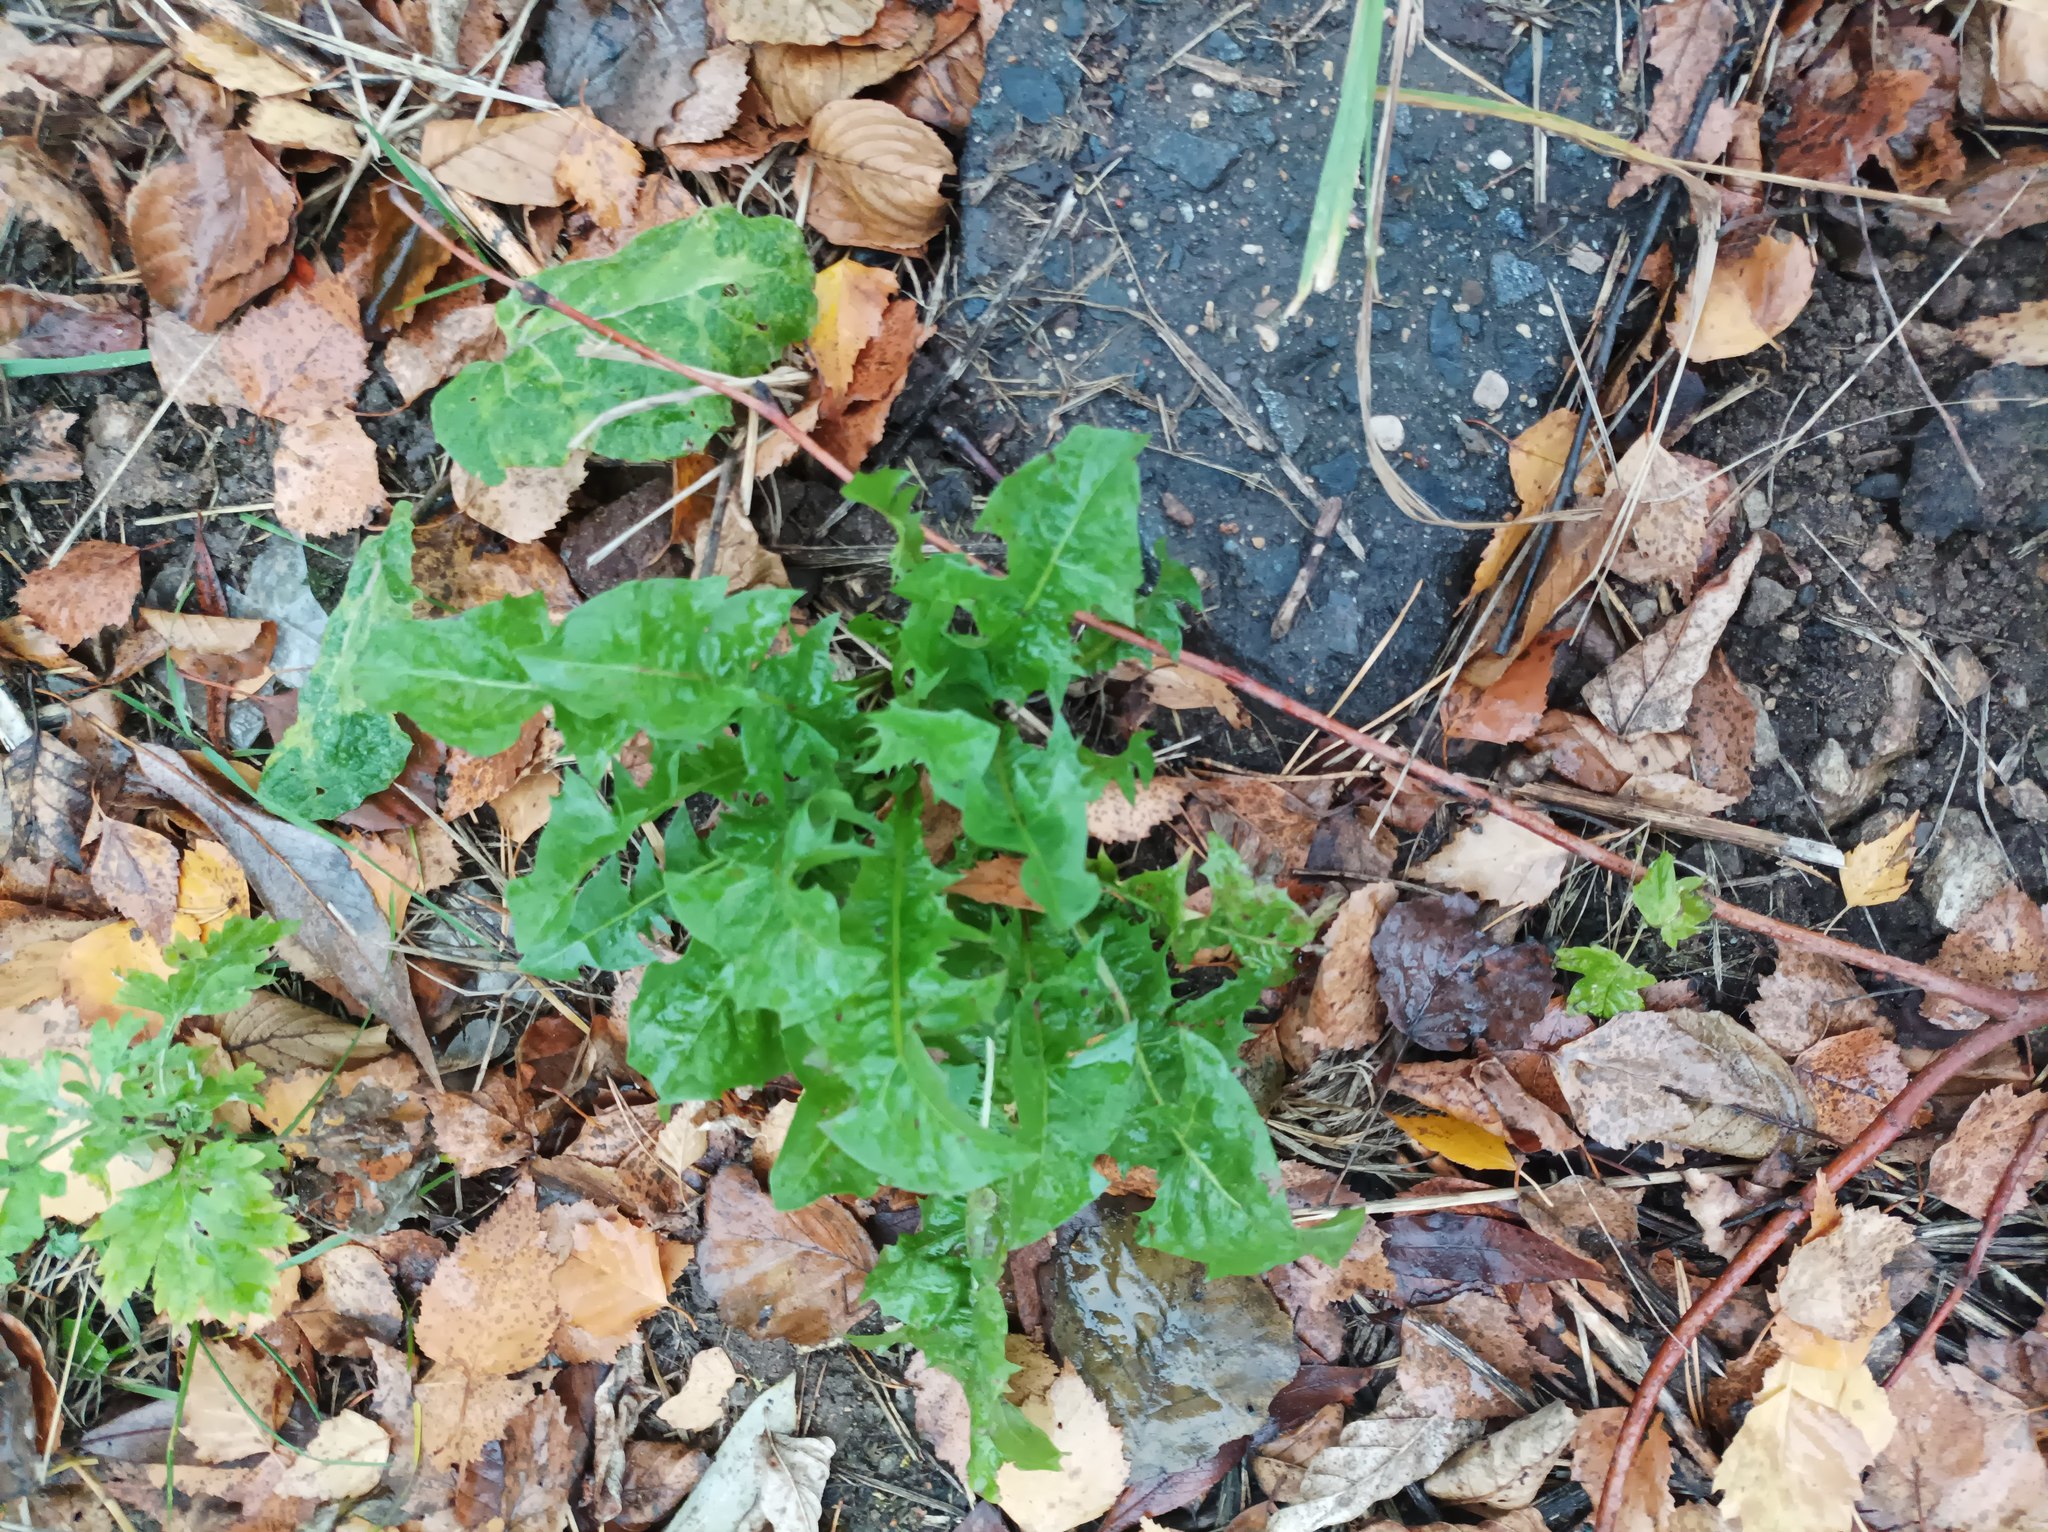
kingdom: Plantae
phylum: Tracheophyta
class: Magnoliopsida
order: Asterales
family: Asteraceae
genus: Taraxacum
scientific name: Taraxacum officinale
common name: Common dandelion
